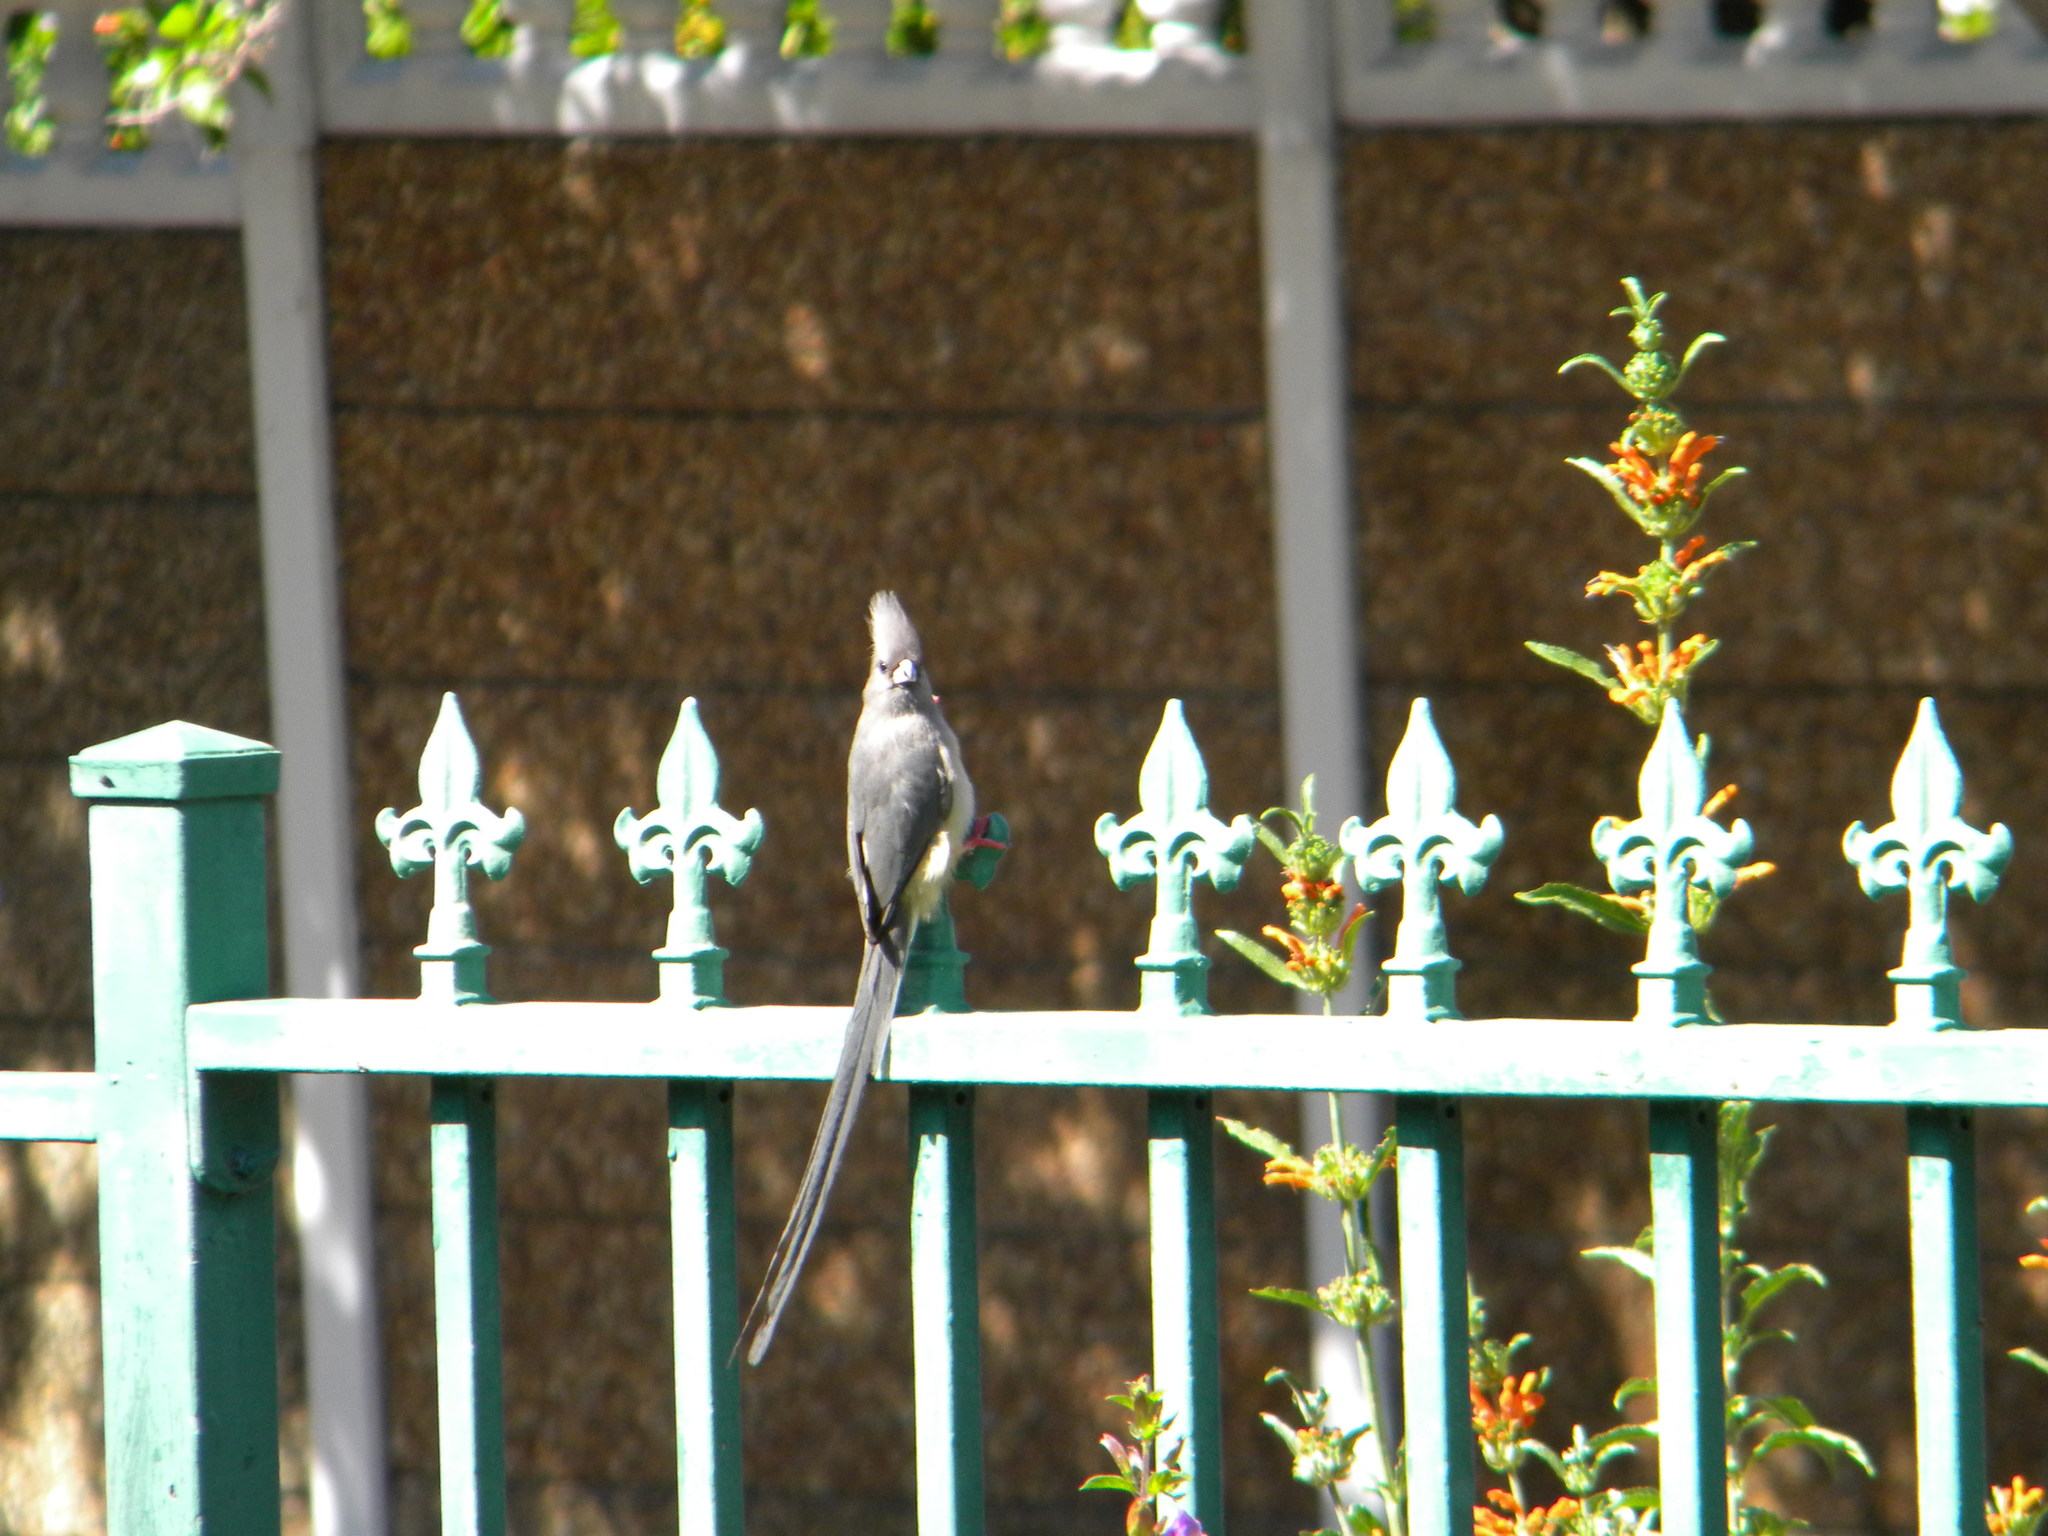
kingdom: Animalia
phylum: Chordata
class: Aves
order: Coliiformes
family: Coliidae
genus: Colius
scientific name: Colius colius
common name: White-backed mousebird
